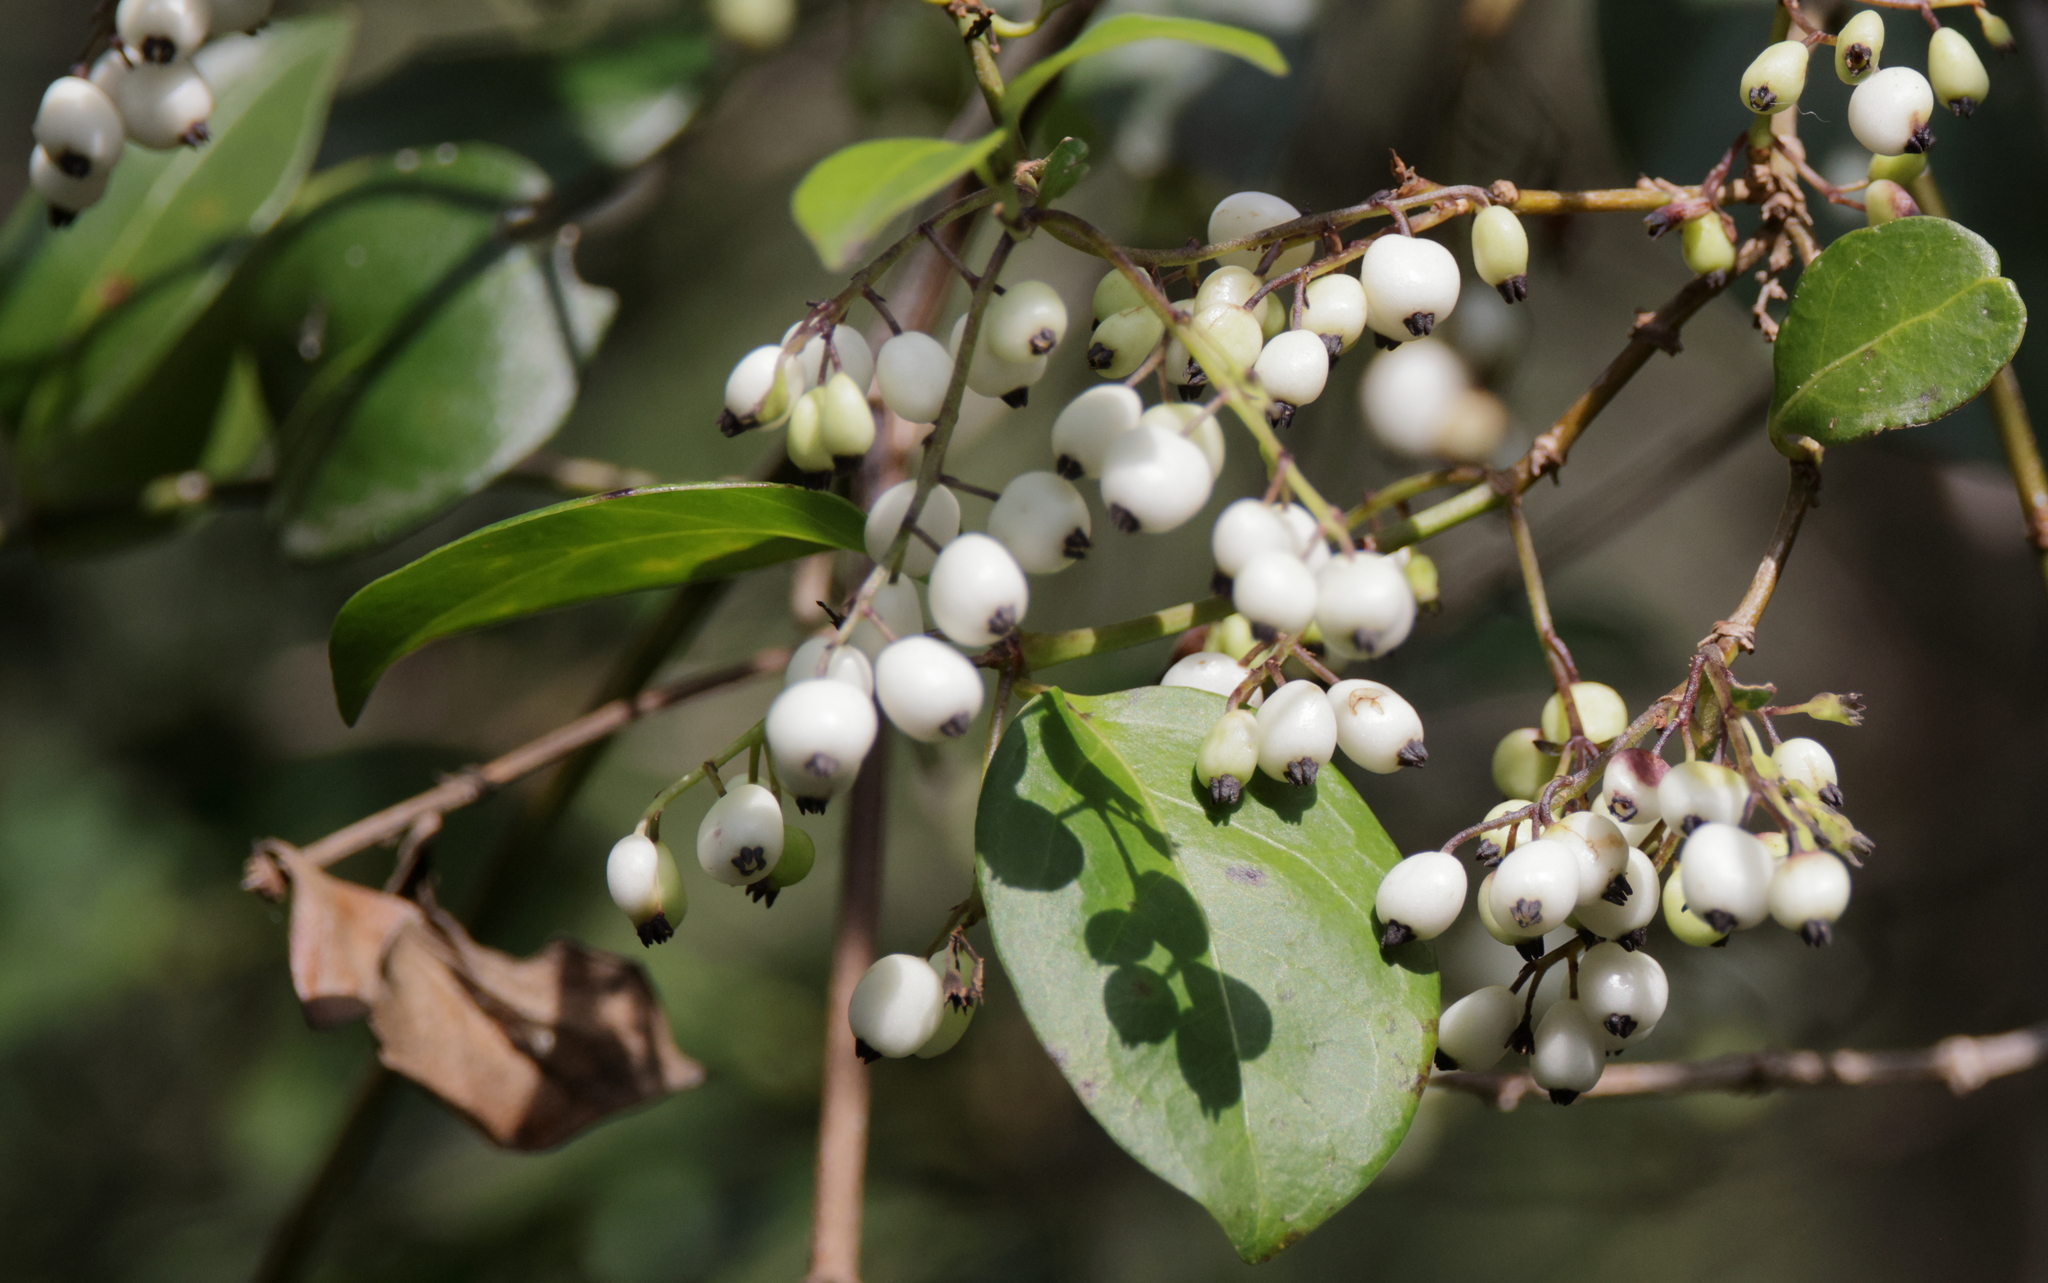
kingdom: Plantae
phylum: Tracheophyta
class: Magnoliopsida
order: Gentianales
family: Rubiaceae
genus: Chiococca
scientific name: Chiococca alba
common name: Snowberry
